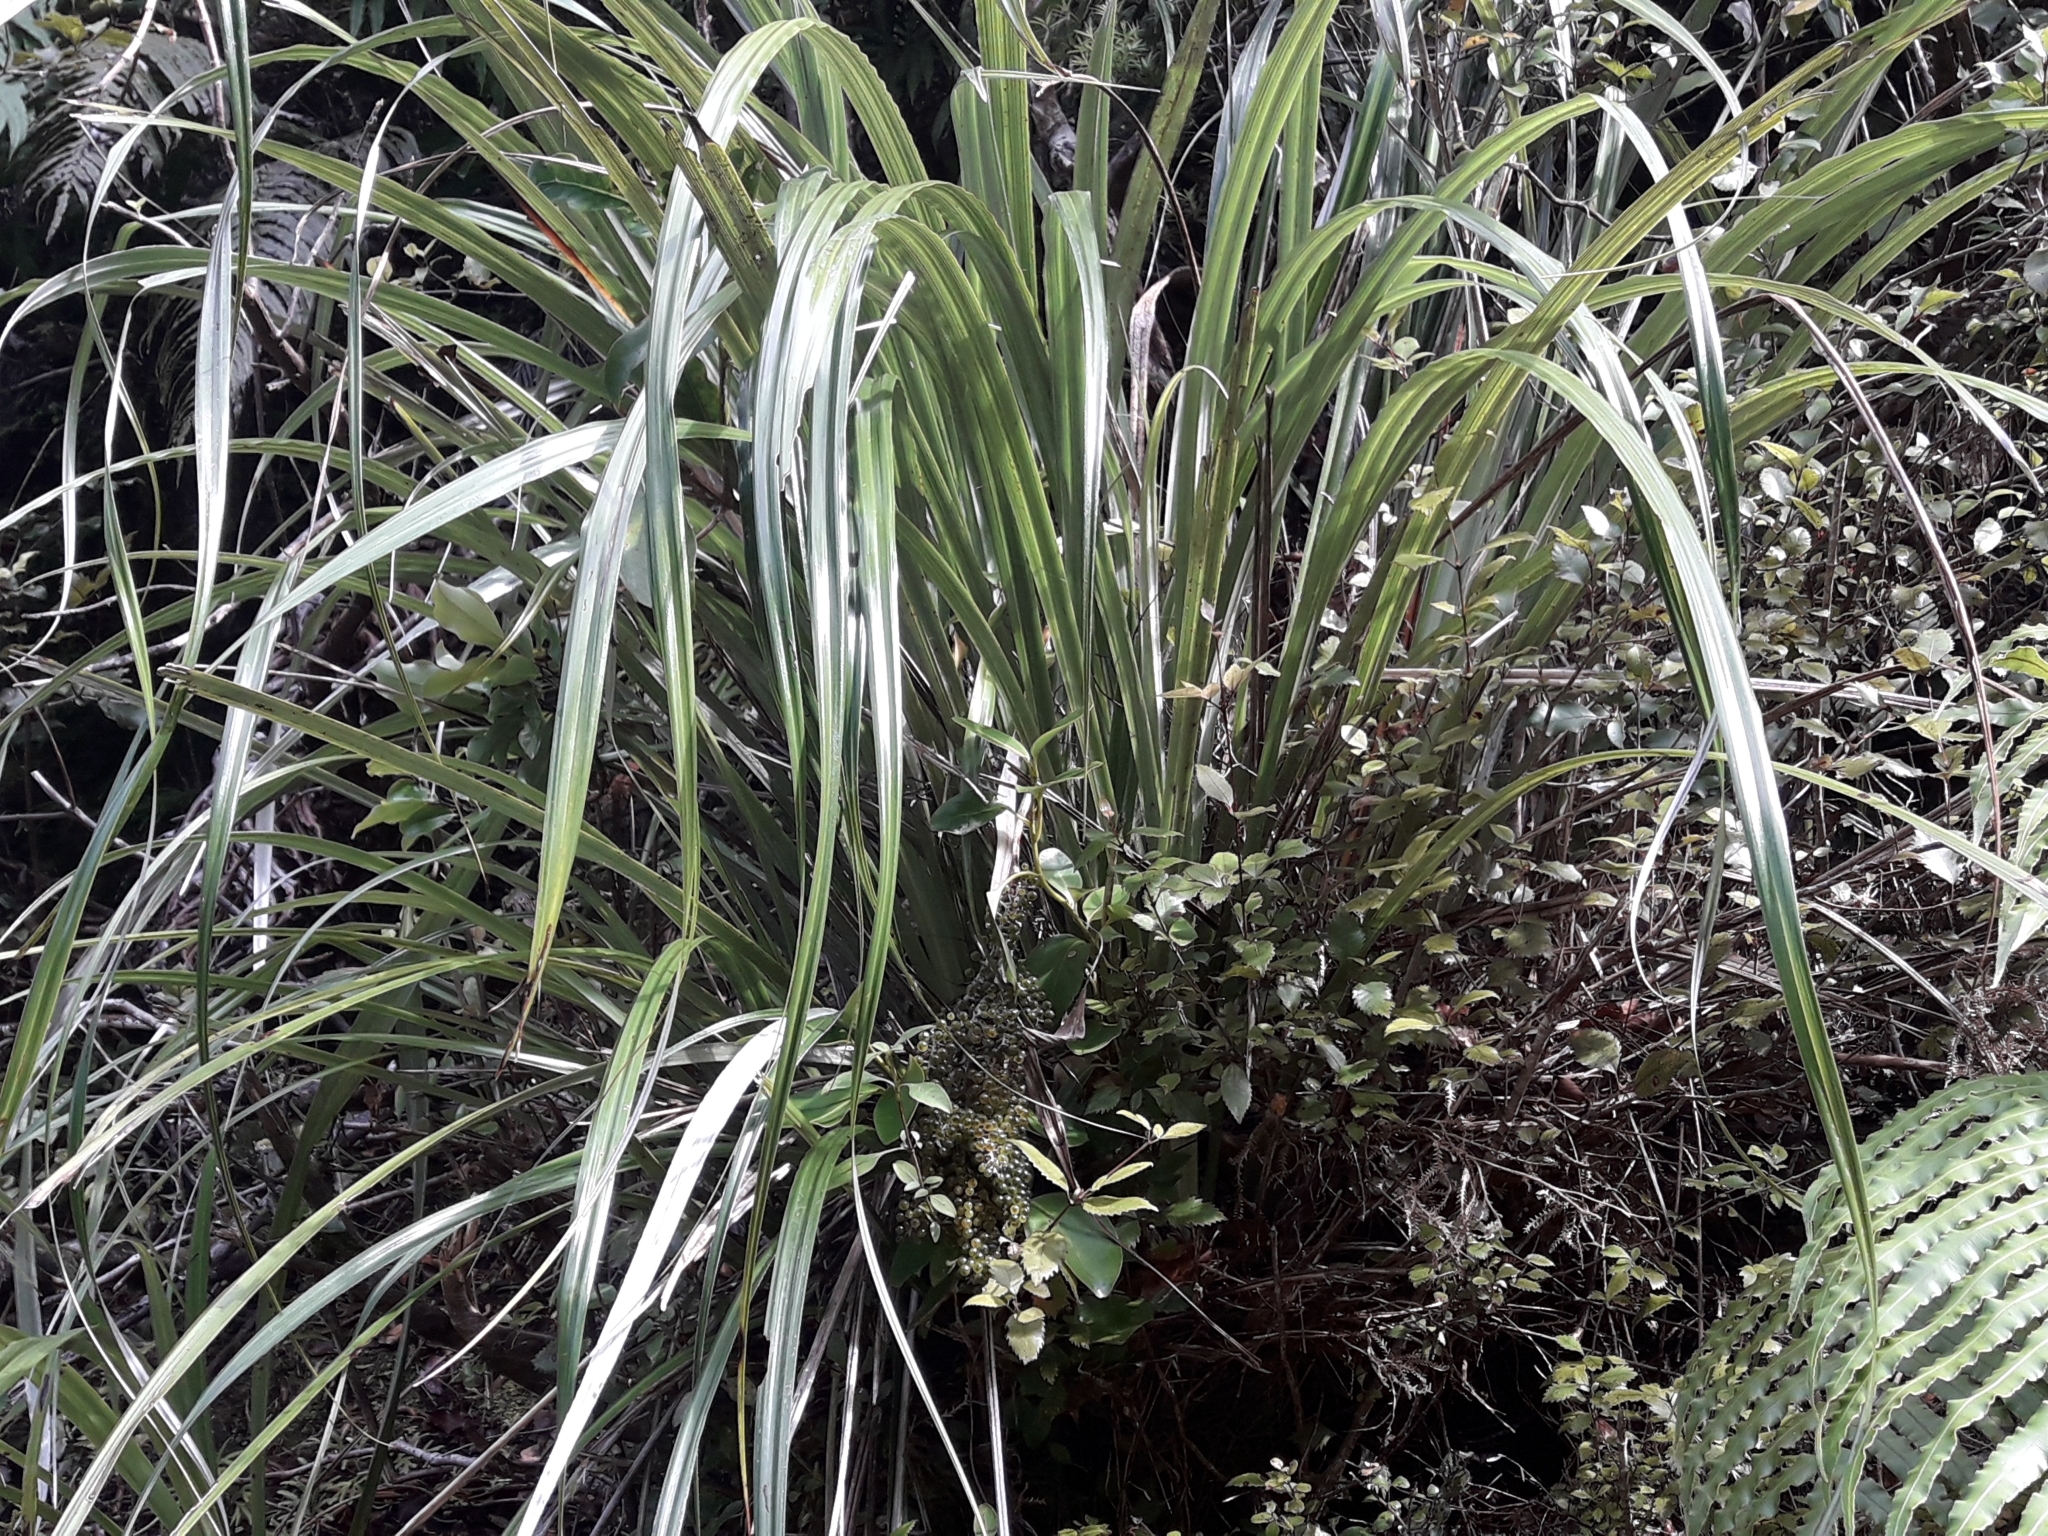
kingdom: Plantae
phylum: Tracheophyta
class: Liliopsida
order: Asparagales
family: Asteliaceae
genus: Astelia
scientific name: Astelia solandri
